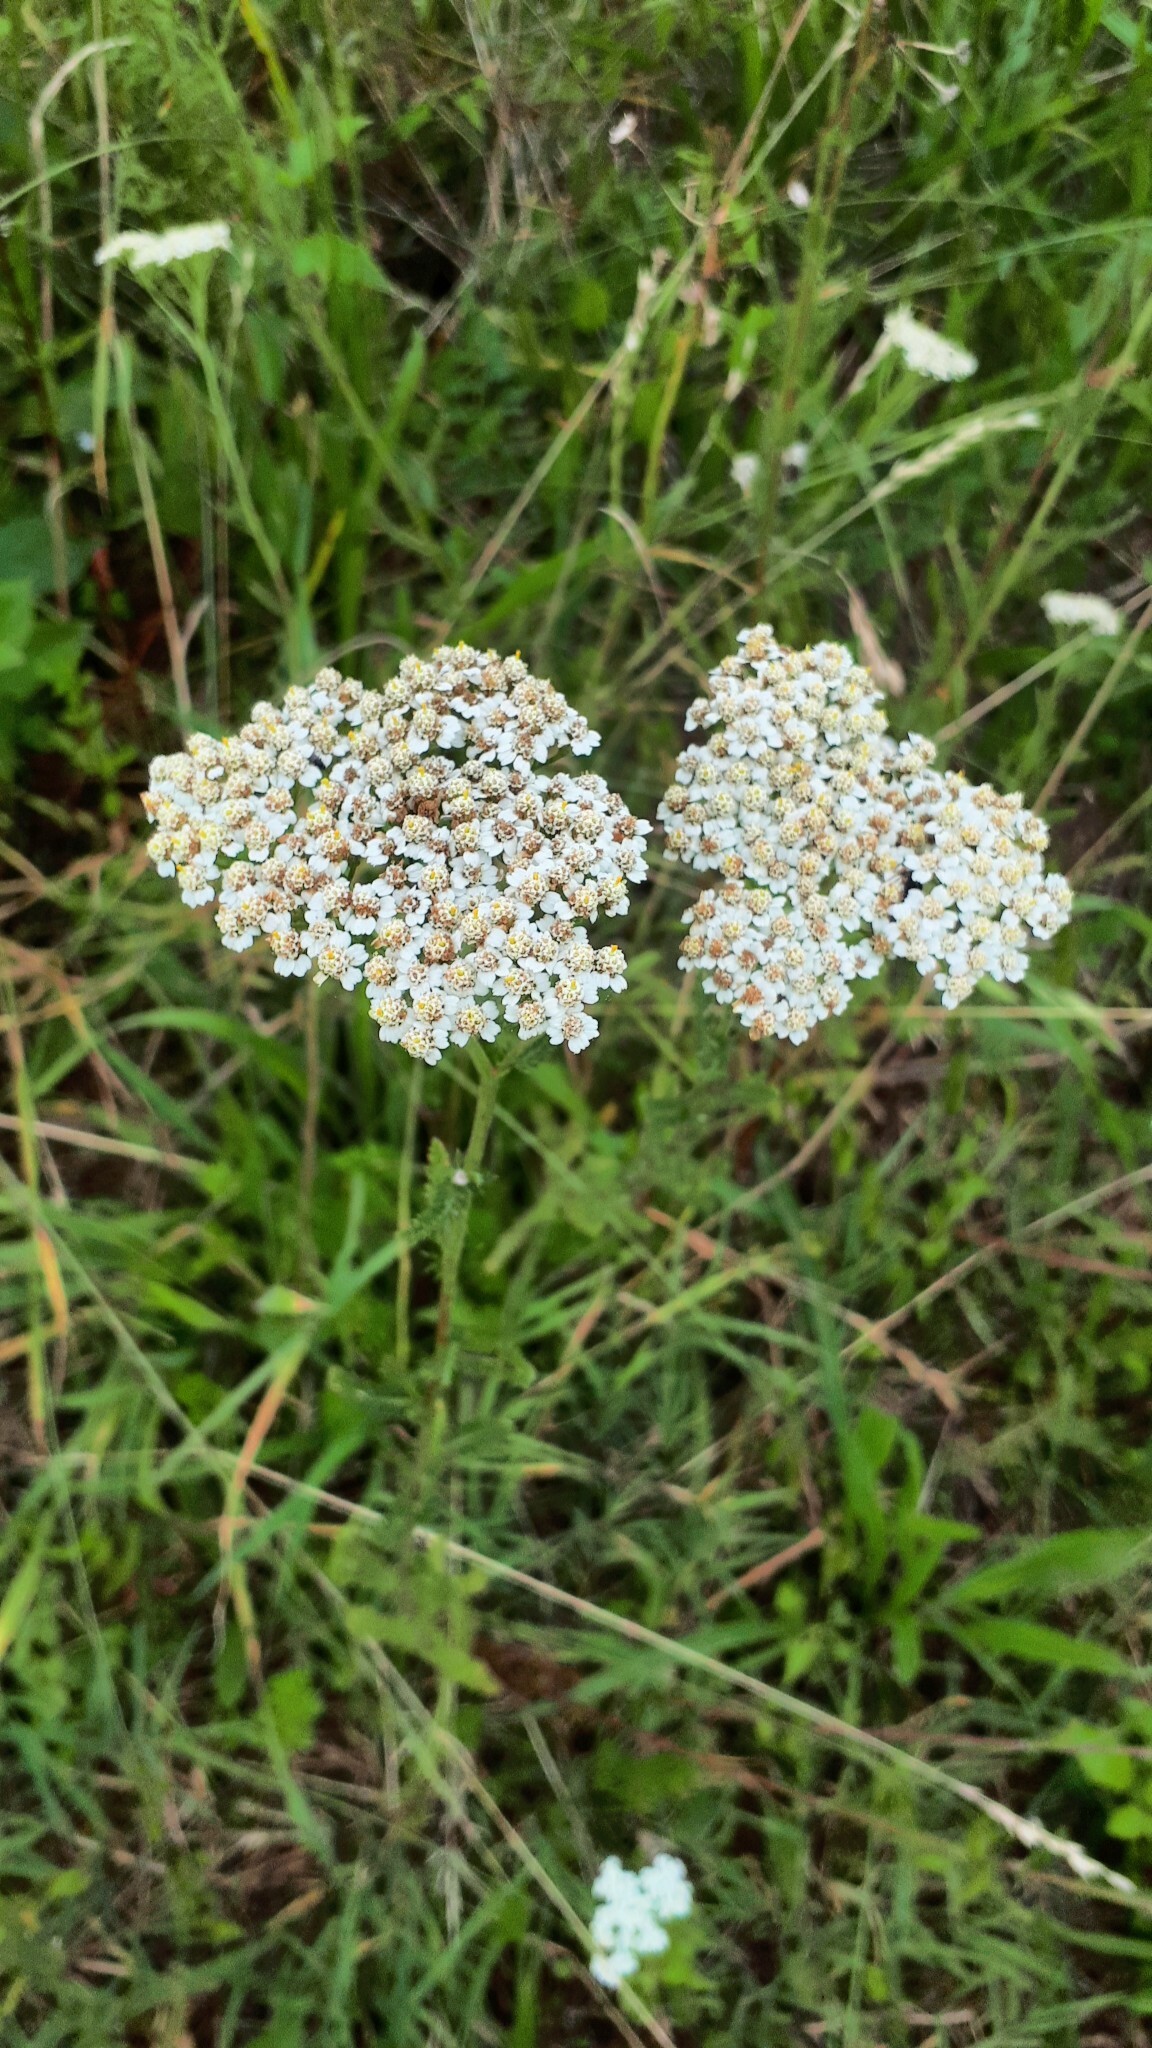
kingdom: Plantae
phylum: Tracheophyta
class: Magnoliopsida
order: Asterales
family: Asteraceae
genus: Achillea
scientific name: Achillea millefolium
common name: Yarrow
